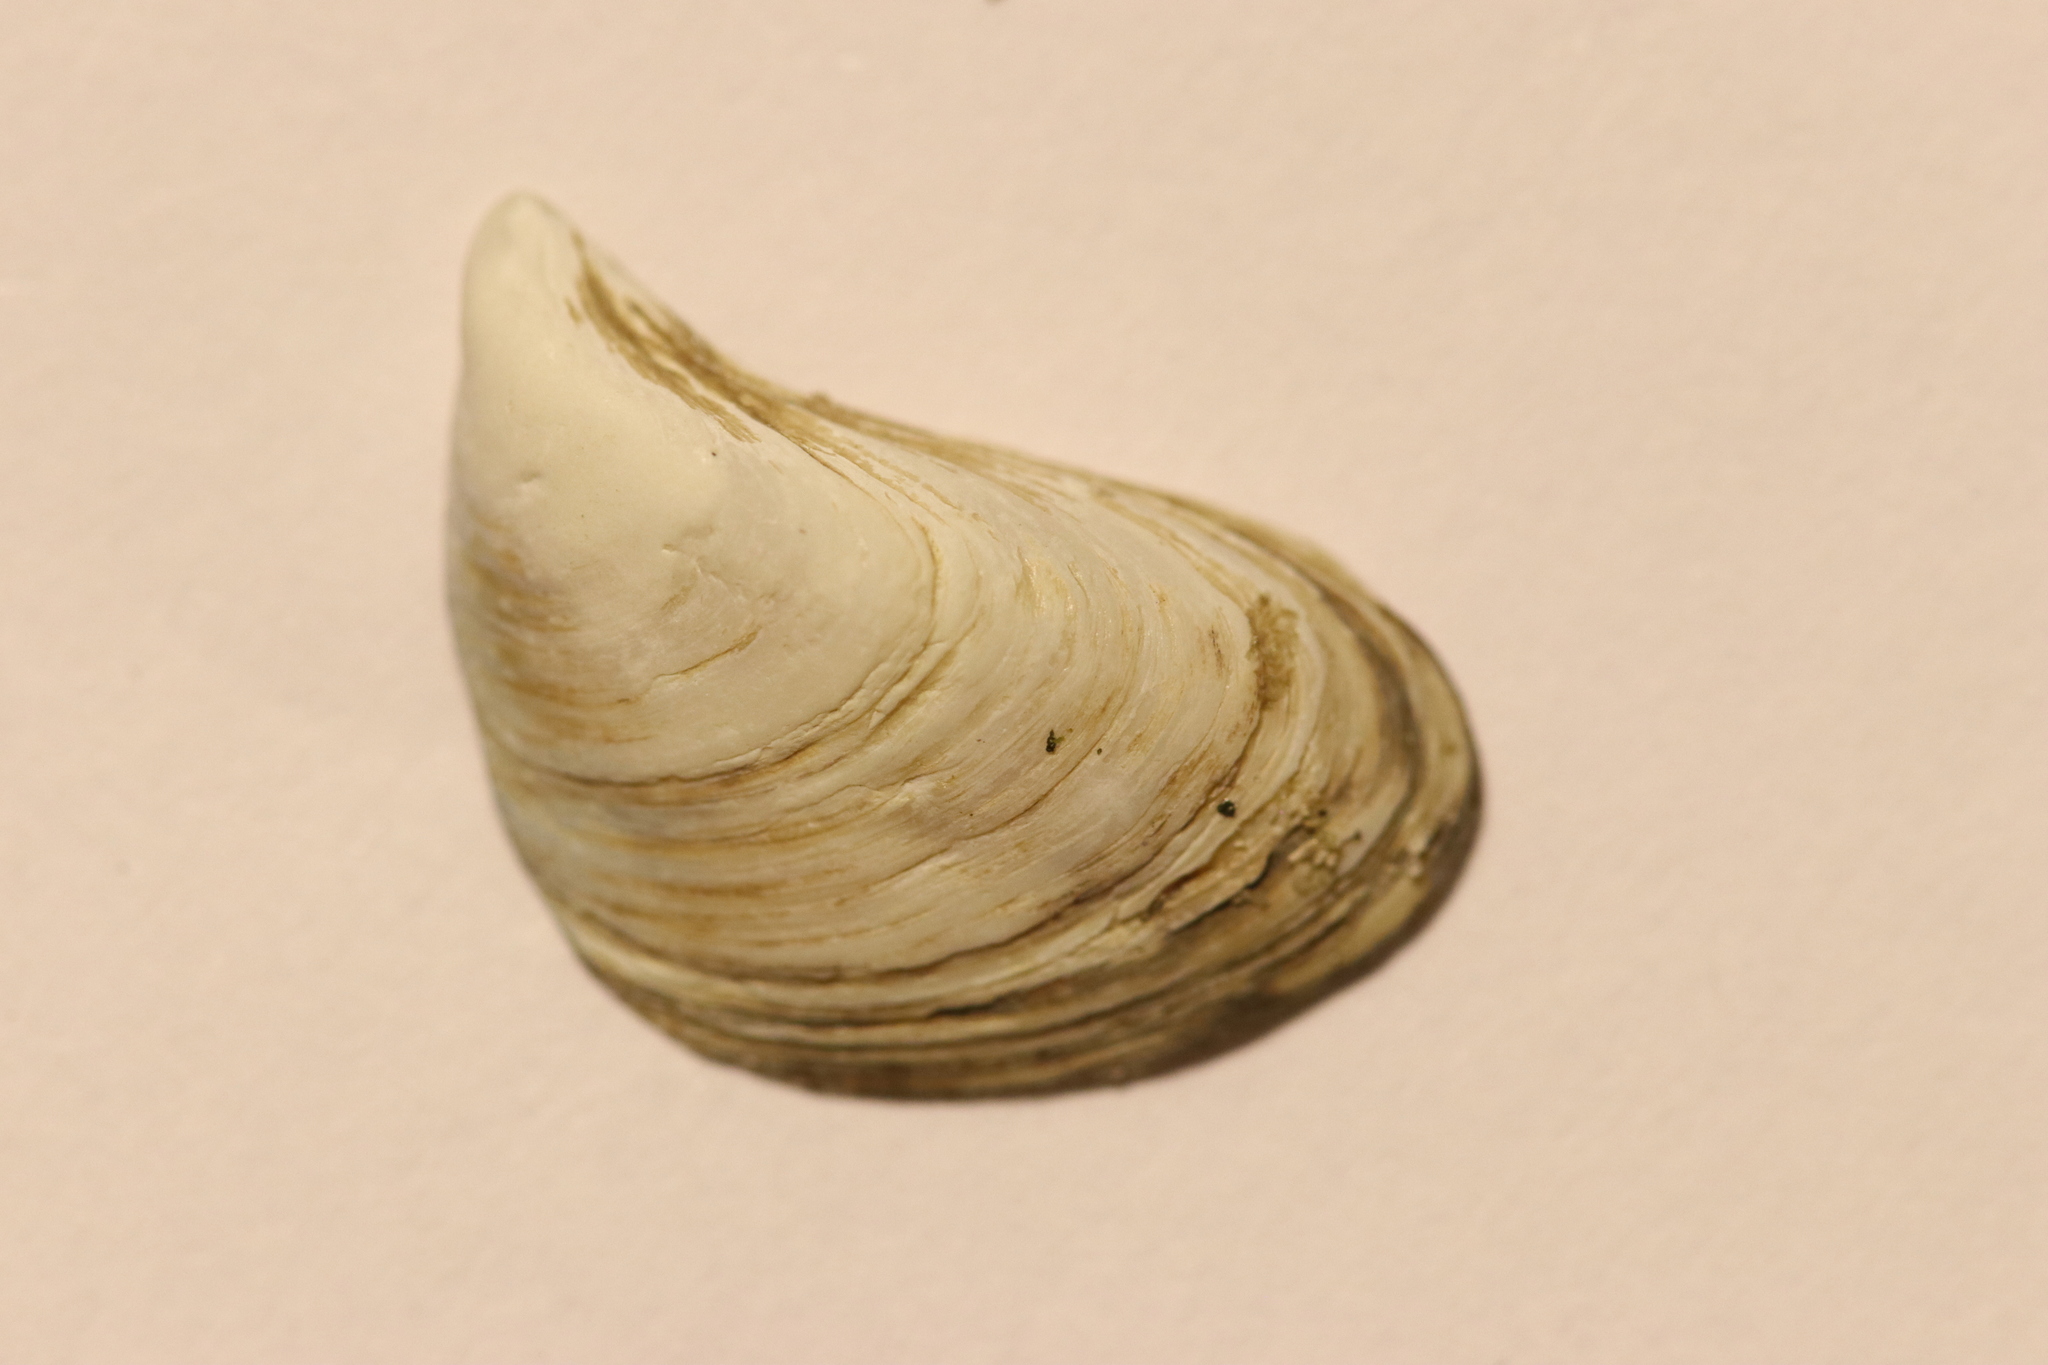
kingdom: Animalia
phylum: Mollusca
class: Bivalvia
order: Myida
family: Dreissenidae
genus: Dreissena
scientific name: Dreissena bugensis
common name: Quagga mussel
